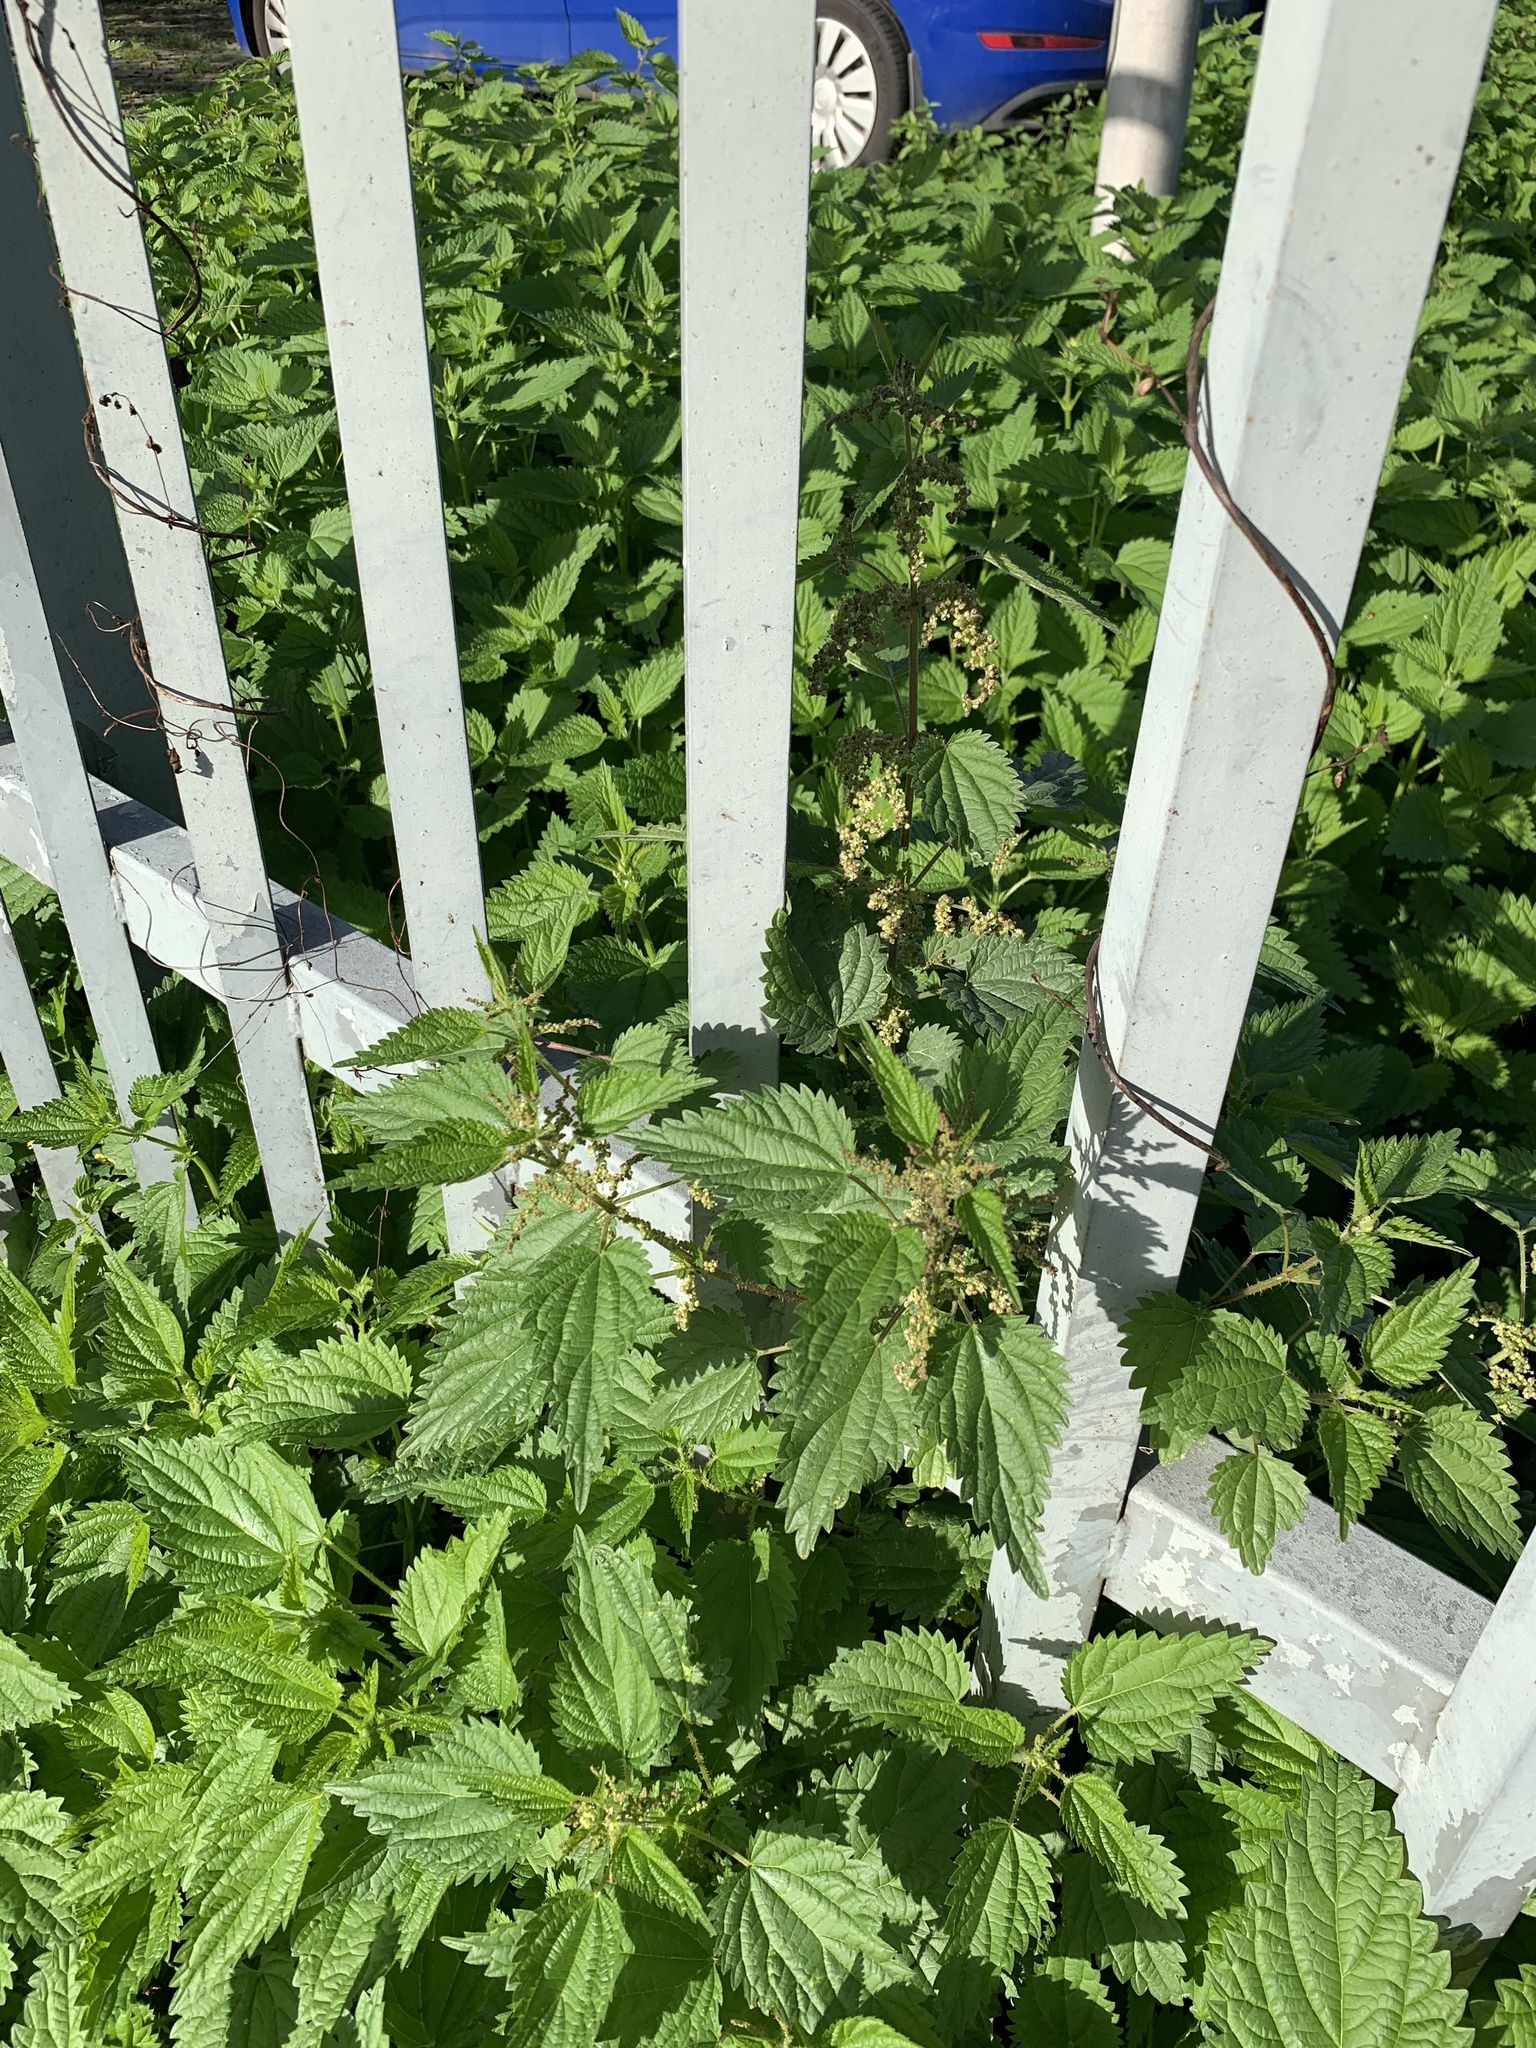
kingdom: Plantae
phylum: Tracheophyta
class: Magnoliopsida
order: Rosales
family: Urticaceae
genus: Urtica
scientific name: Urtica dioica
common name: Common nettle
